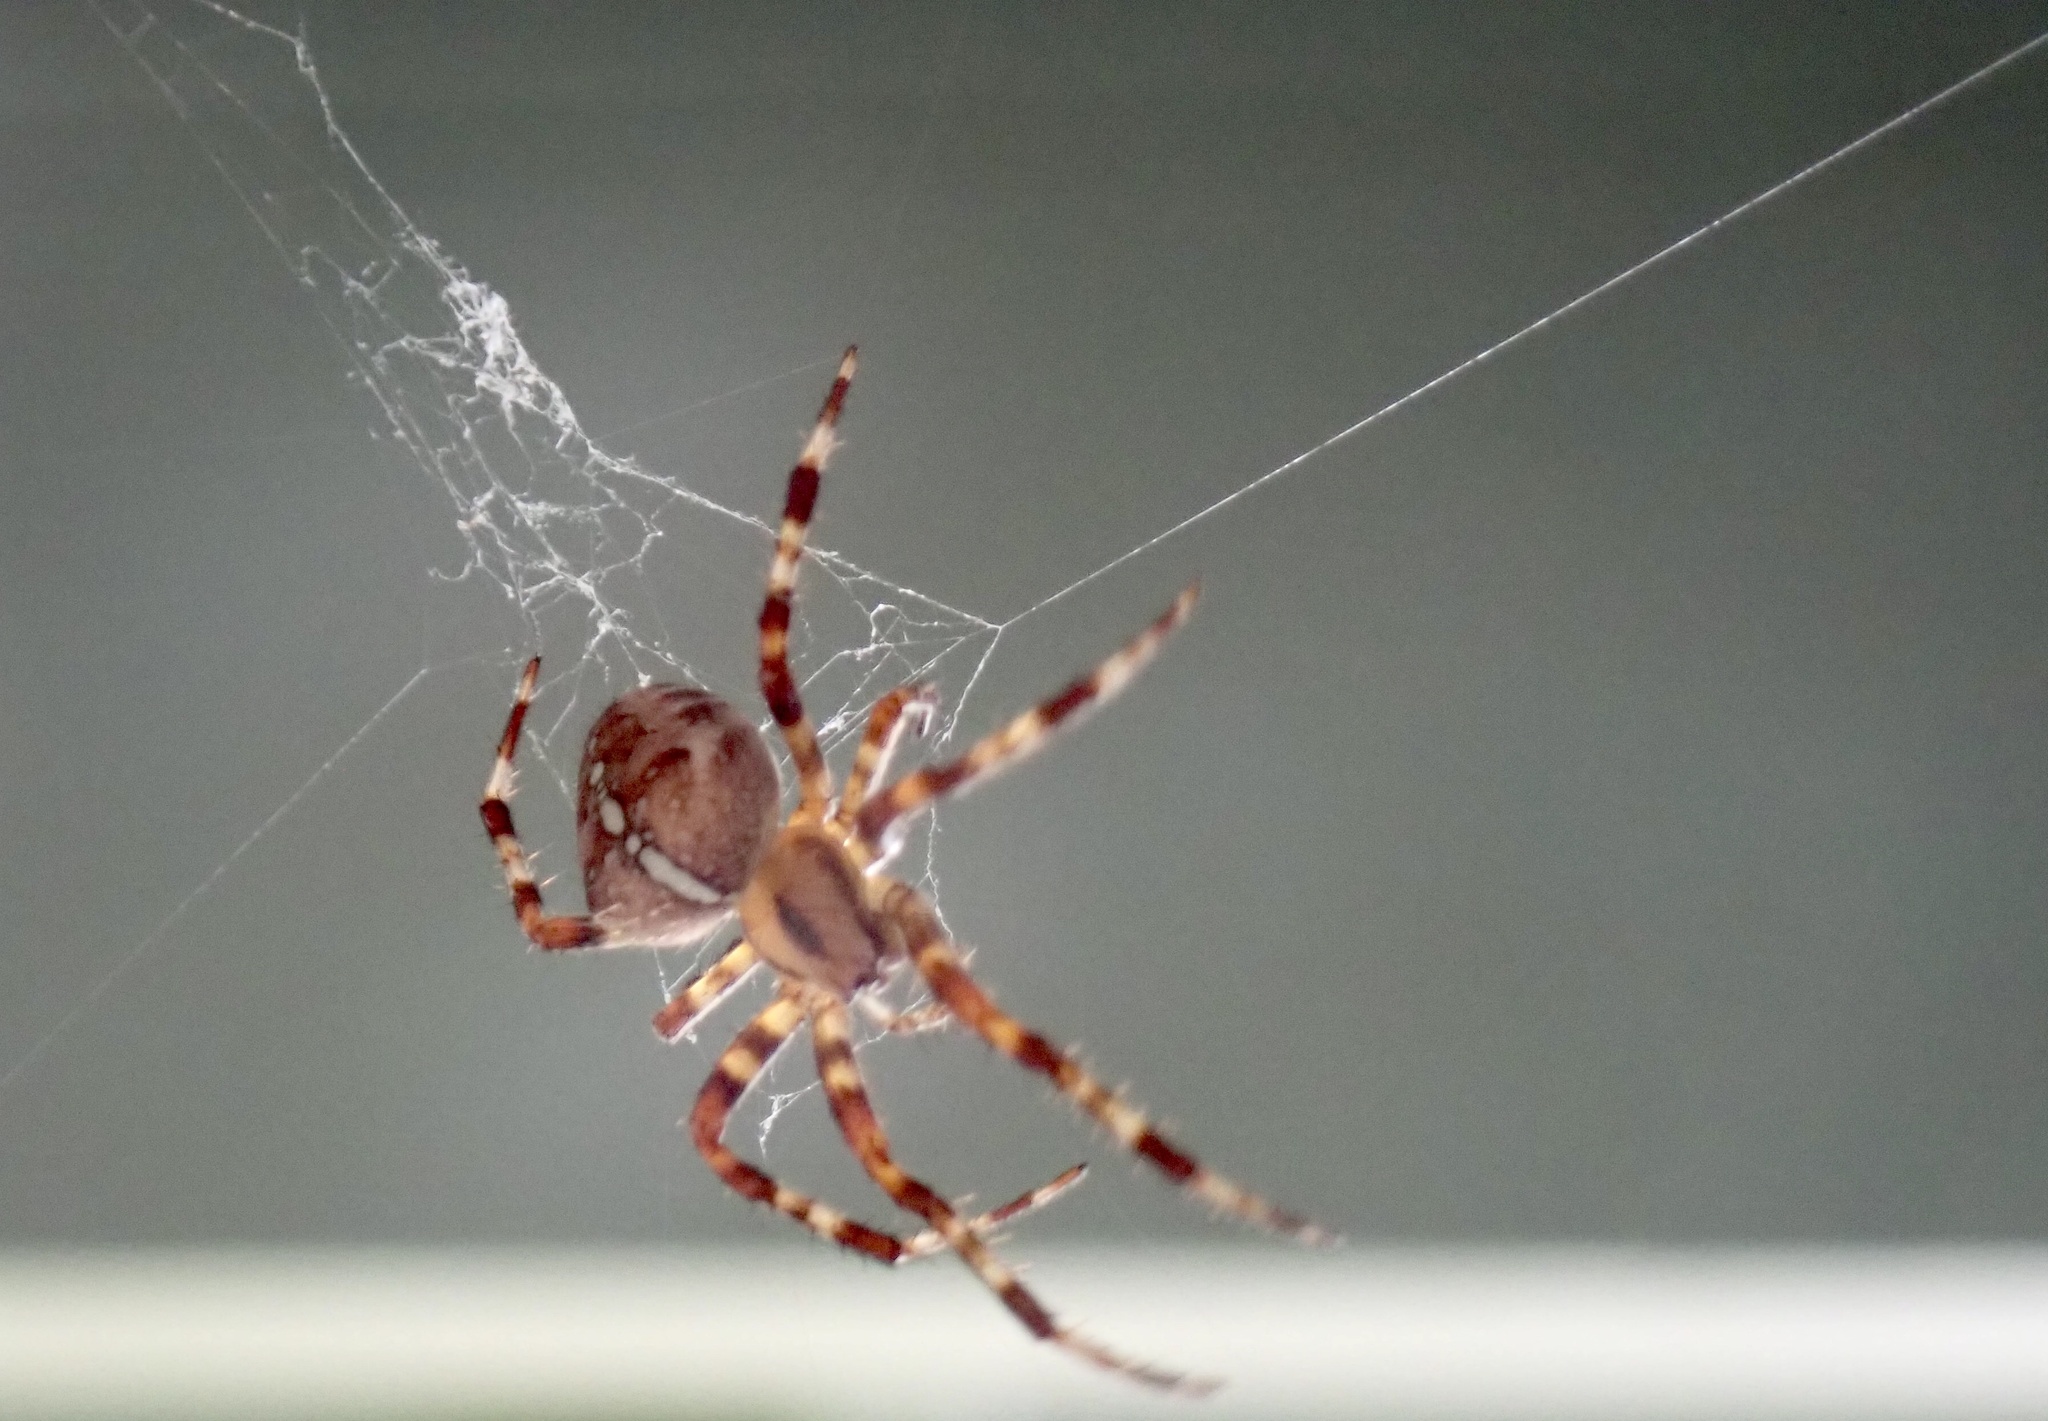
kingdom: Animalia
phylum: Arthropoda
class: Arachnida
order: Araneae
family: Araneidae
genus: Araneus
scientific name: Araneus diadematus
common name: Cross orbweaver
